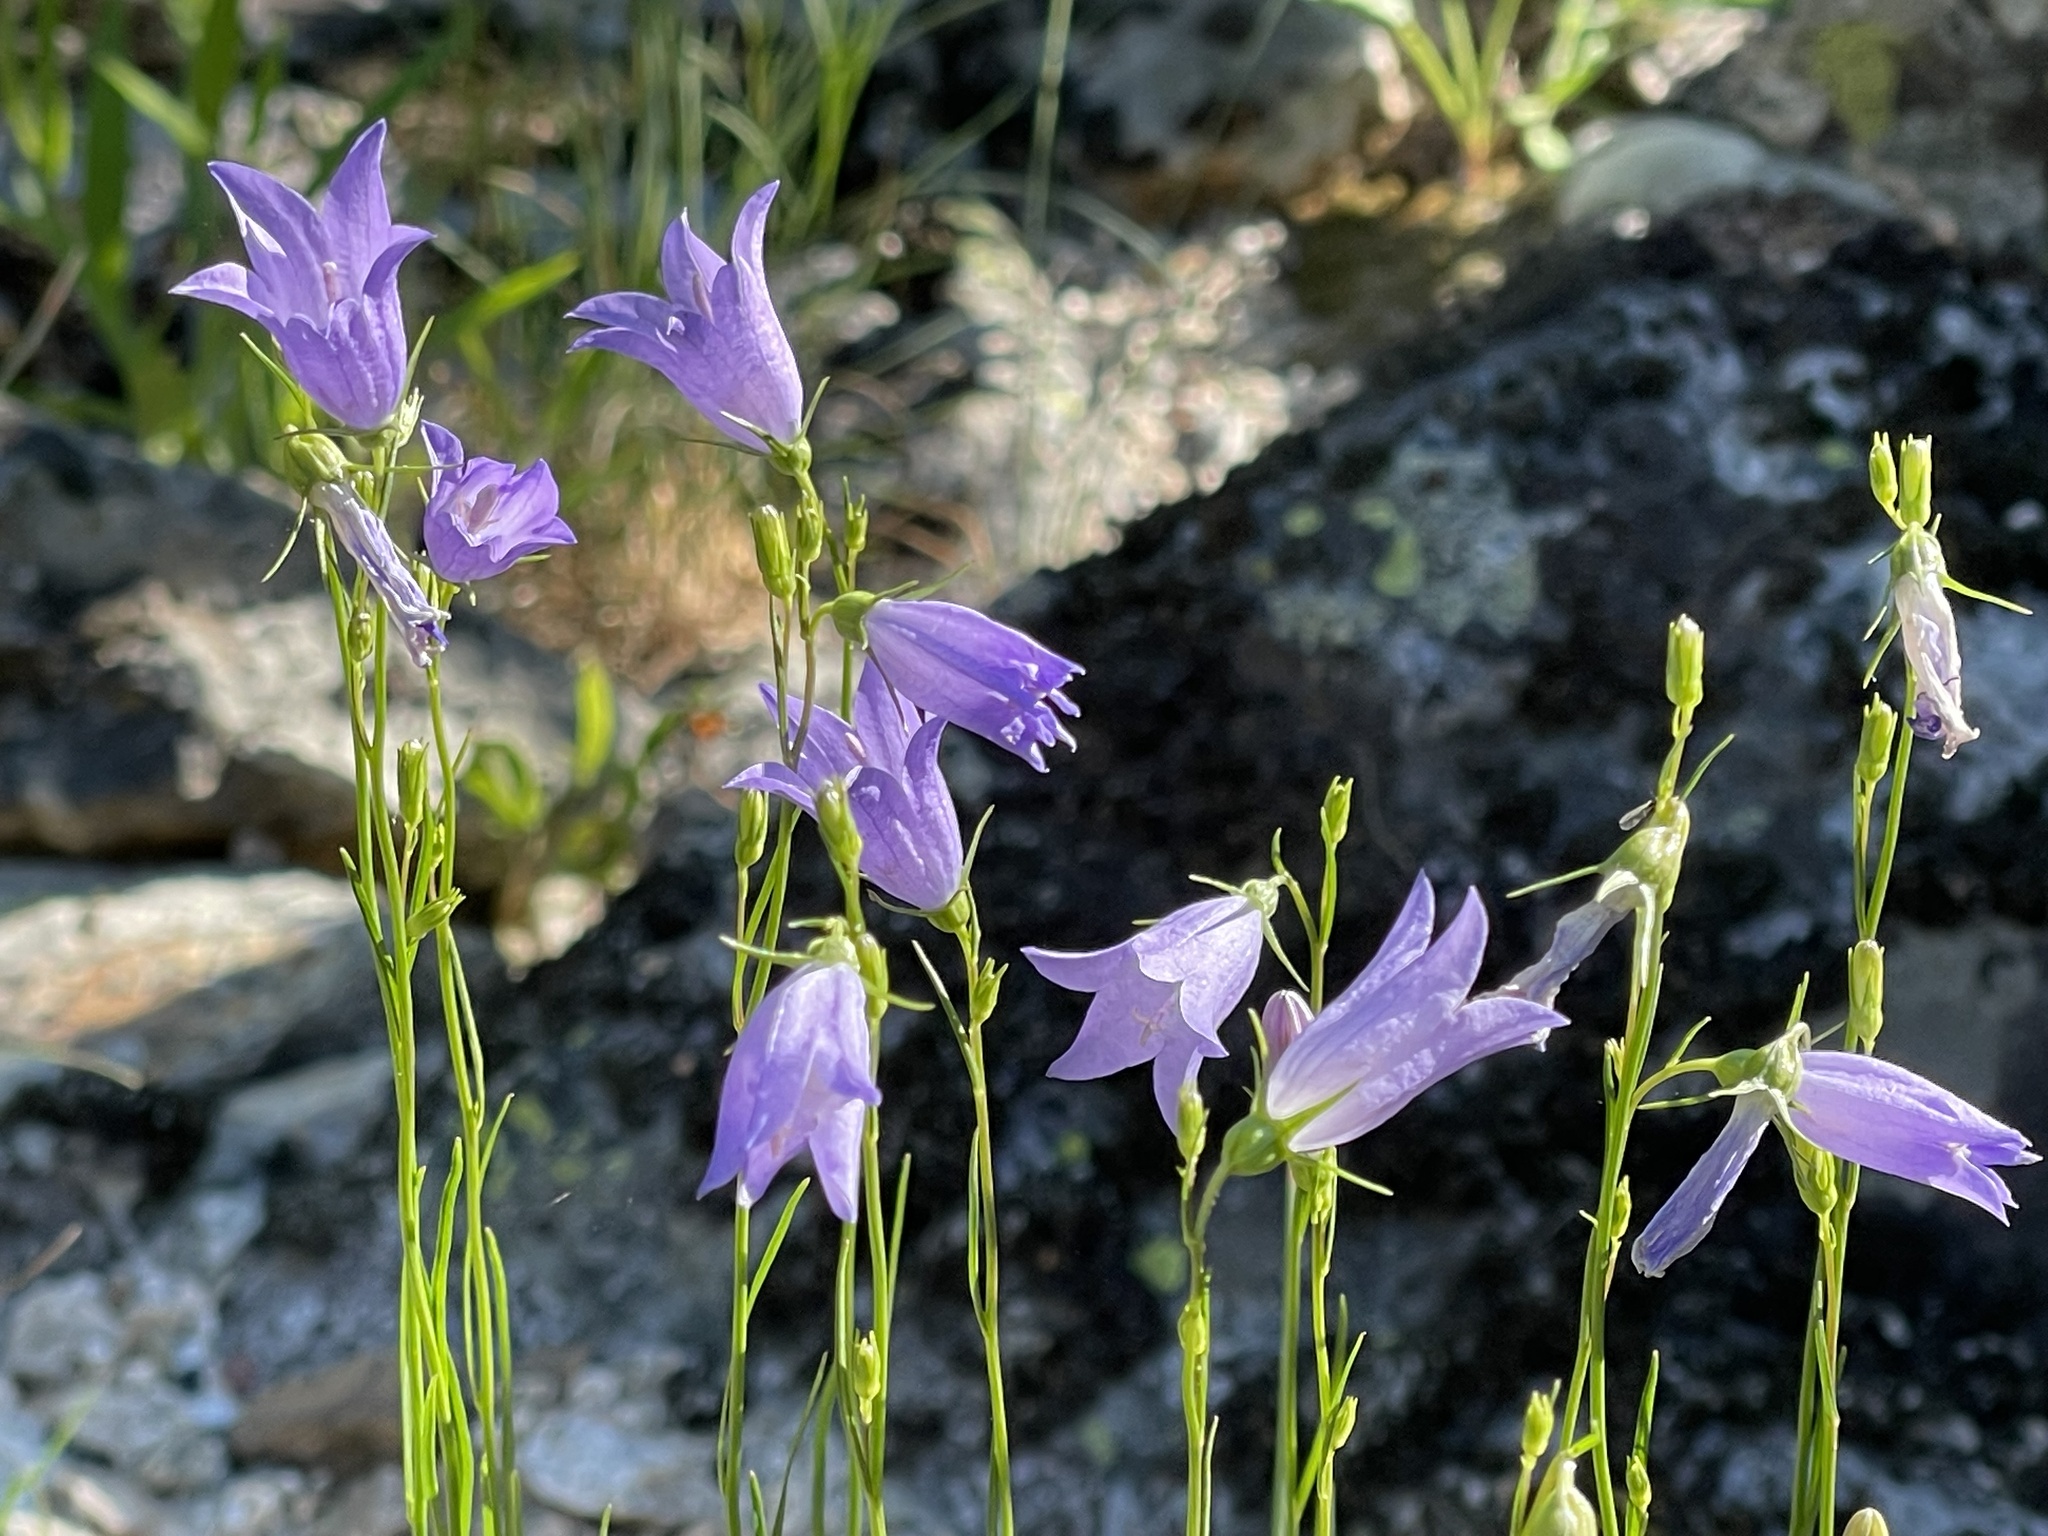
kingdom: Plantae
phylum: Tracheophyta
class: Magnoliopsida
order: Asterales
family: Campanulaceae
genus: Campanula
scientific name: Campanula petiolata
